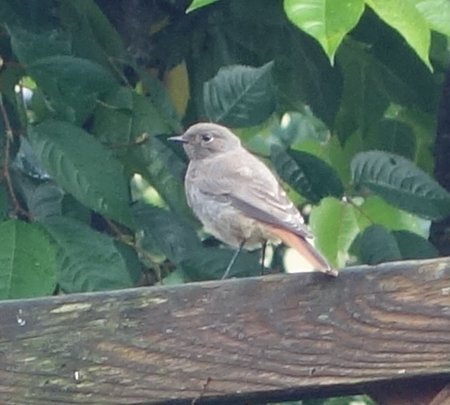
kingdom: Animalia
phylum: Chordata
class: Aves
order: Passeriformes
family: Muscicapidae
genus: Phoenicurus
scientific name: Phoenicurus ochruros
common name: Black redstart
